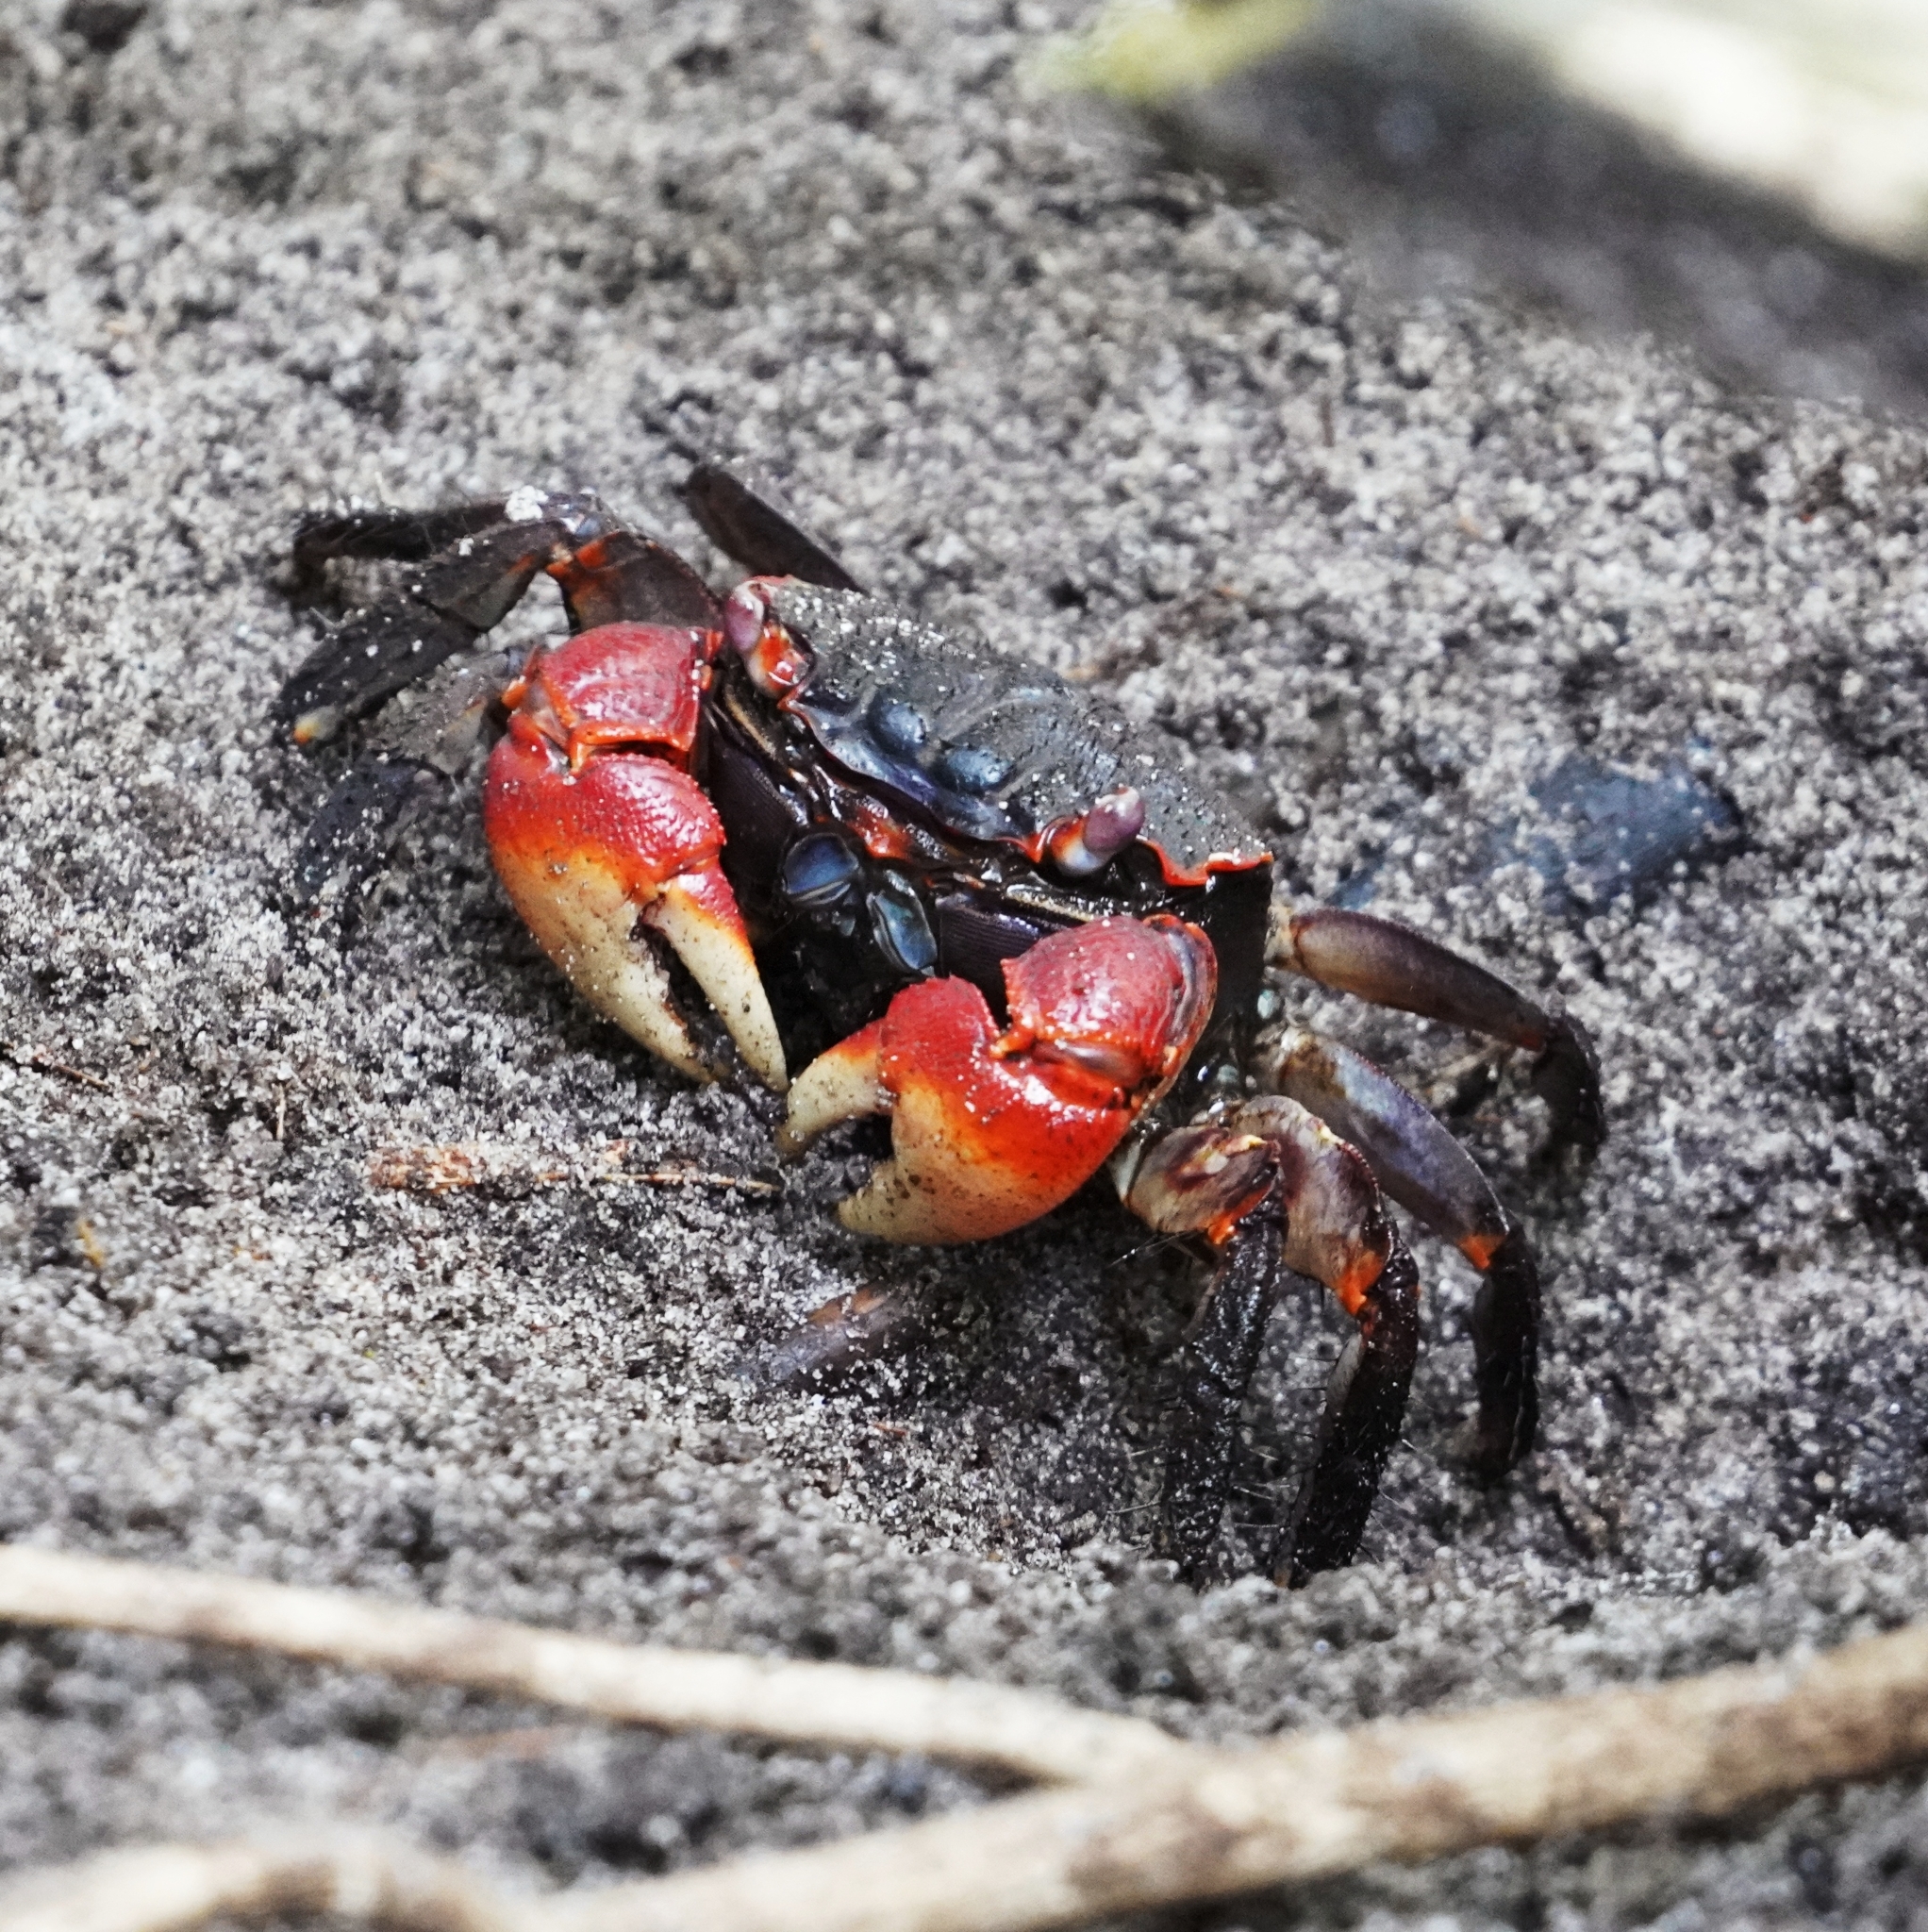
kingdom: Animalia
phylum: Arthropoda
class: Malacostraca
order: Decapoda
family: Sesarmidae
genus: Neosarmatium
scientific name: Neosarmatium africanum
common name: East african red mangrove crab
